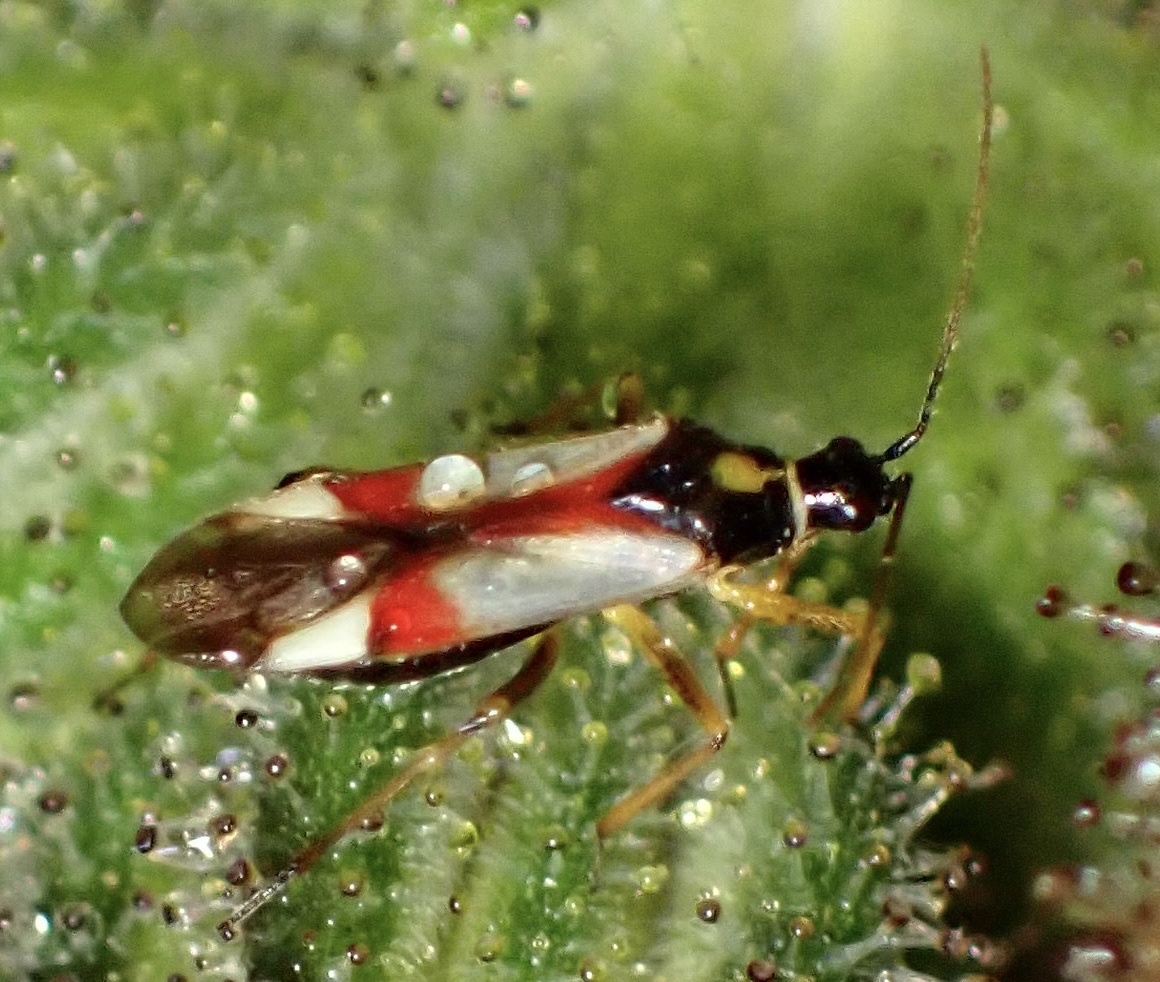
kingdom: Animalia
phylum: Arthropoda
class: Insecta
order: Hemiptera
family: Miridae
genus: Tupiocoris
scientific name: Tupiocoris californicus
